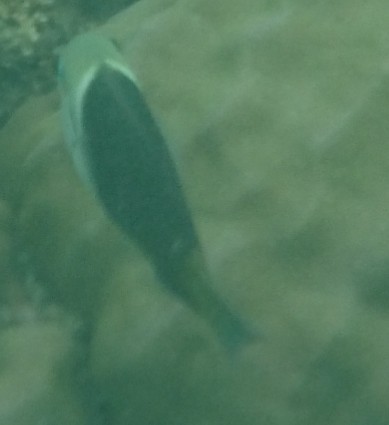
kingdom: Animalia
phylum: Chordata
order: Perciformes
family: Labridae
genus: Hemigymnus
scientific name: Hemigymnus melapterus
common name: Blackeye thicklip
